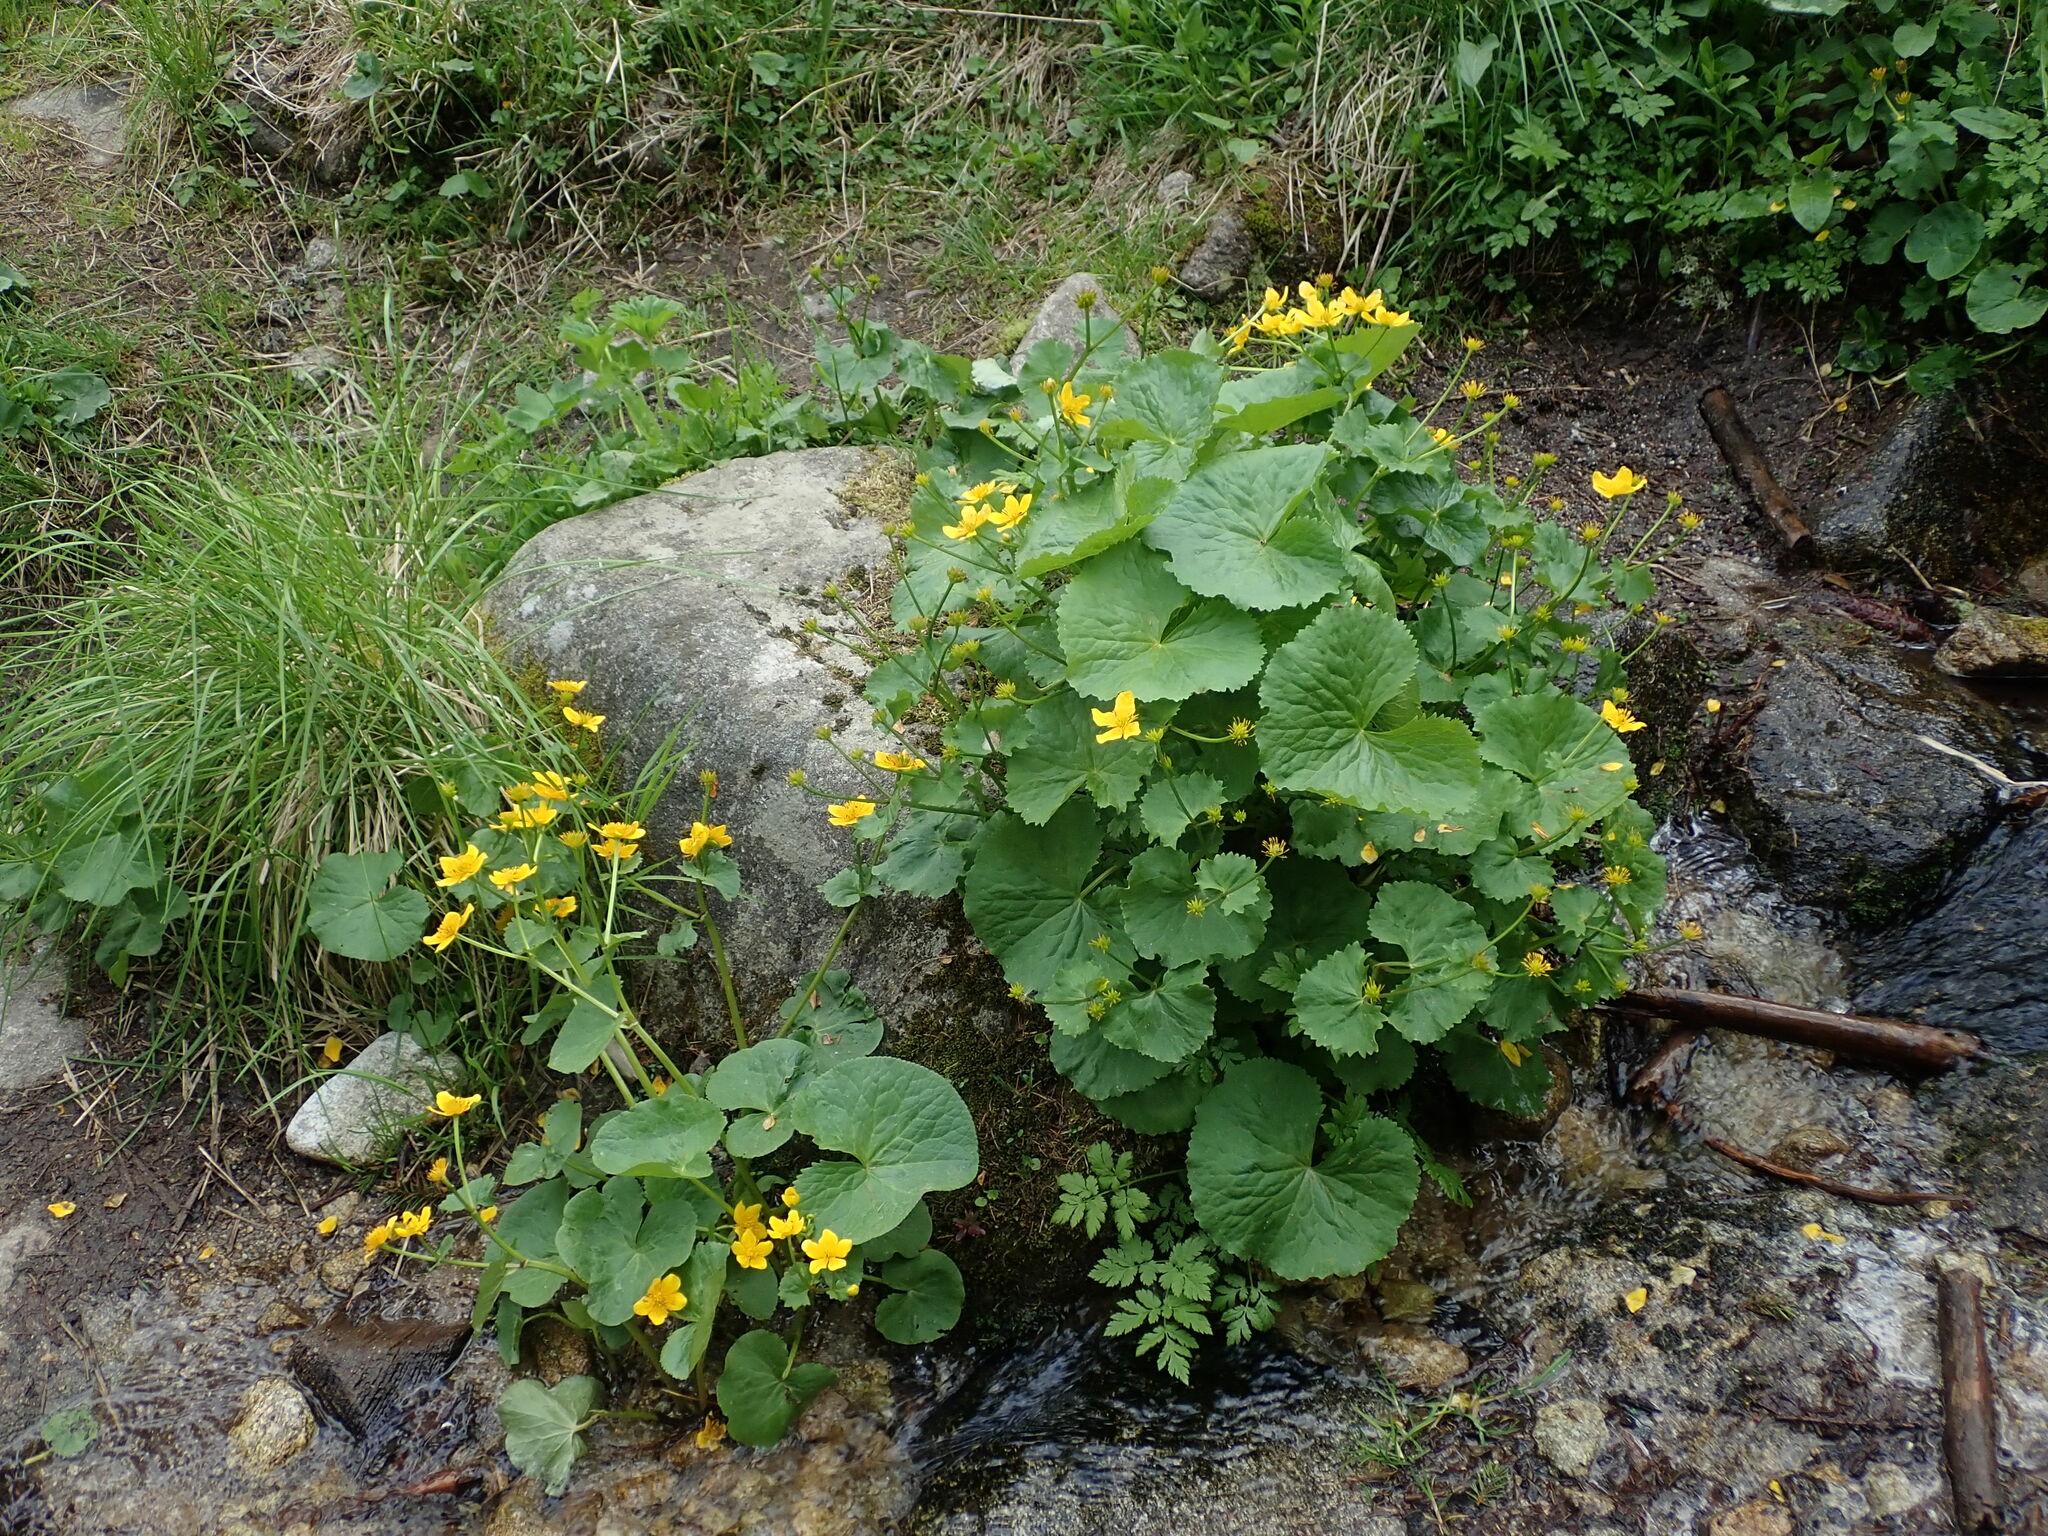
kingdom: Plantae
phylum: Tracheophyta
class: Magnoliopsida
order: Ranunculales
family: Ranunculaceae
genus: Caltha
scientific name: Caltha palustris
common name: Marsh marigold
